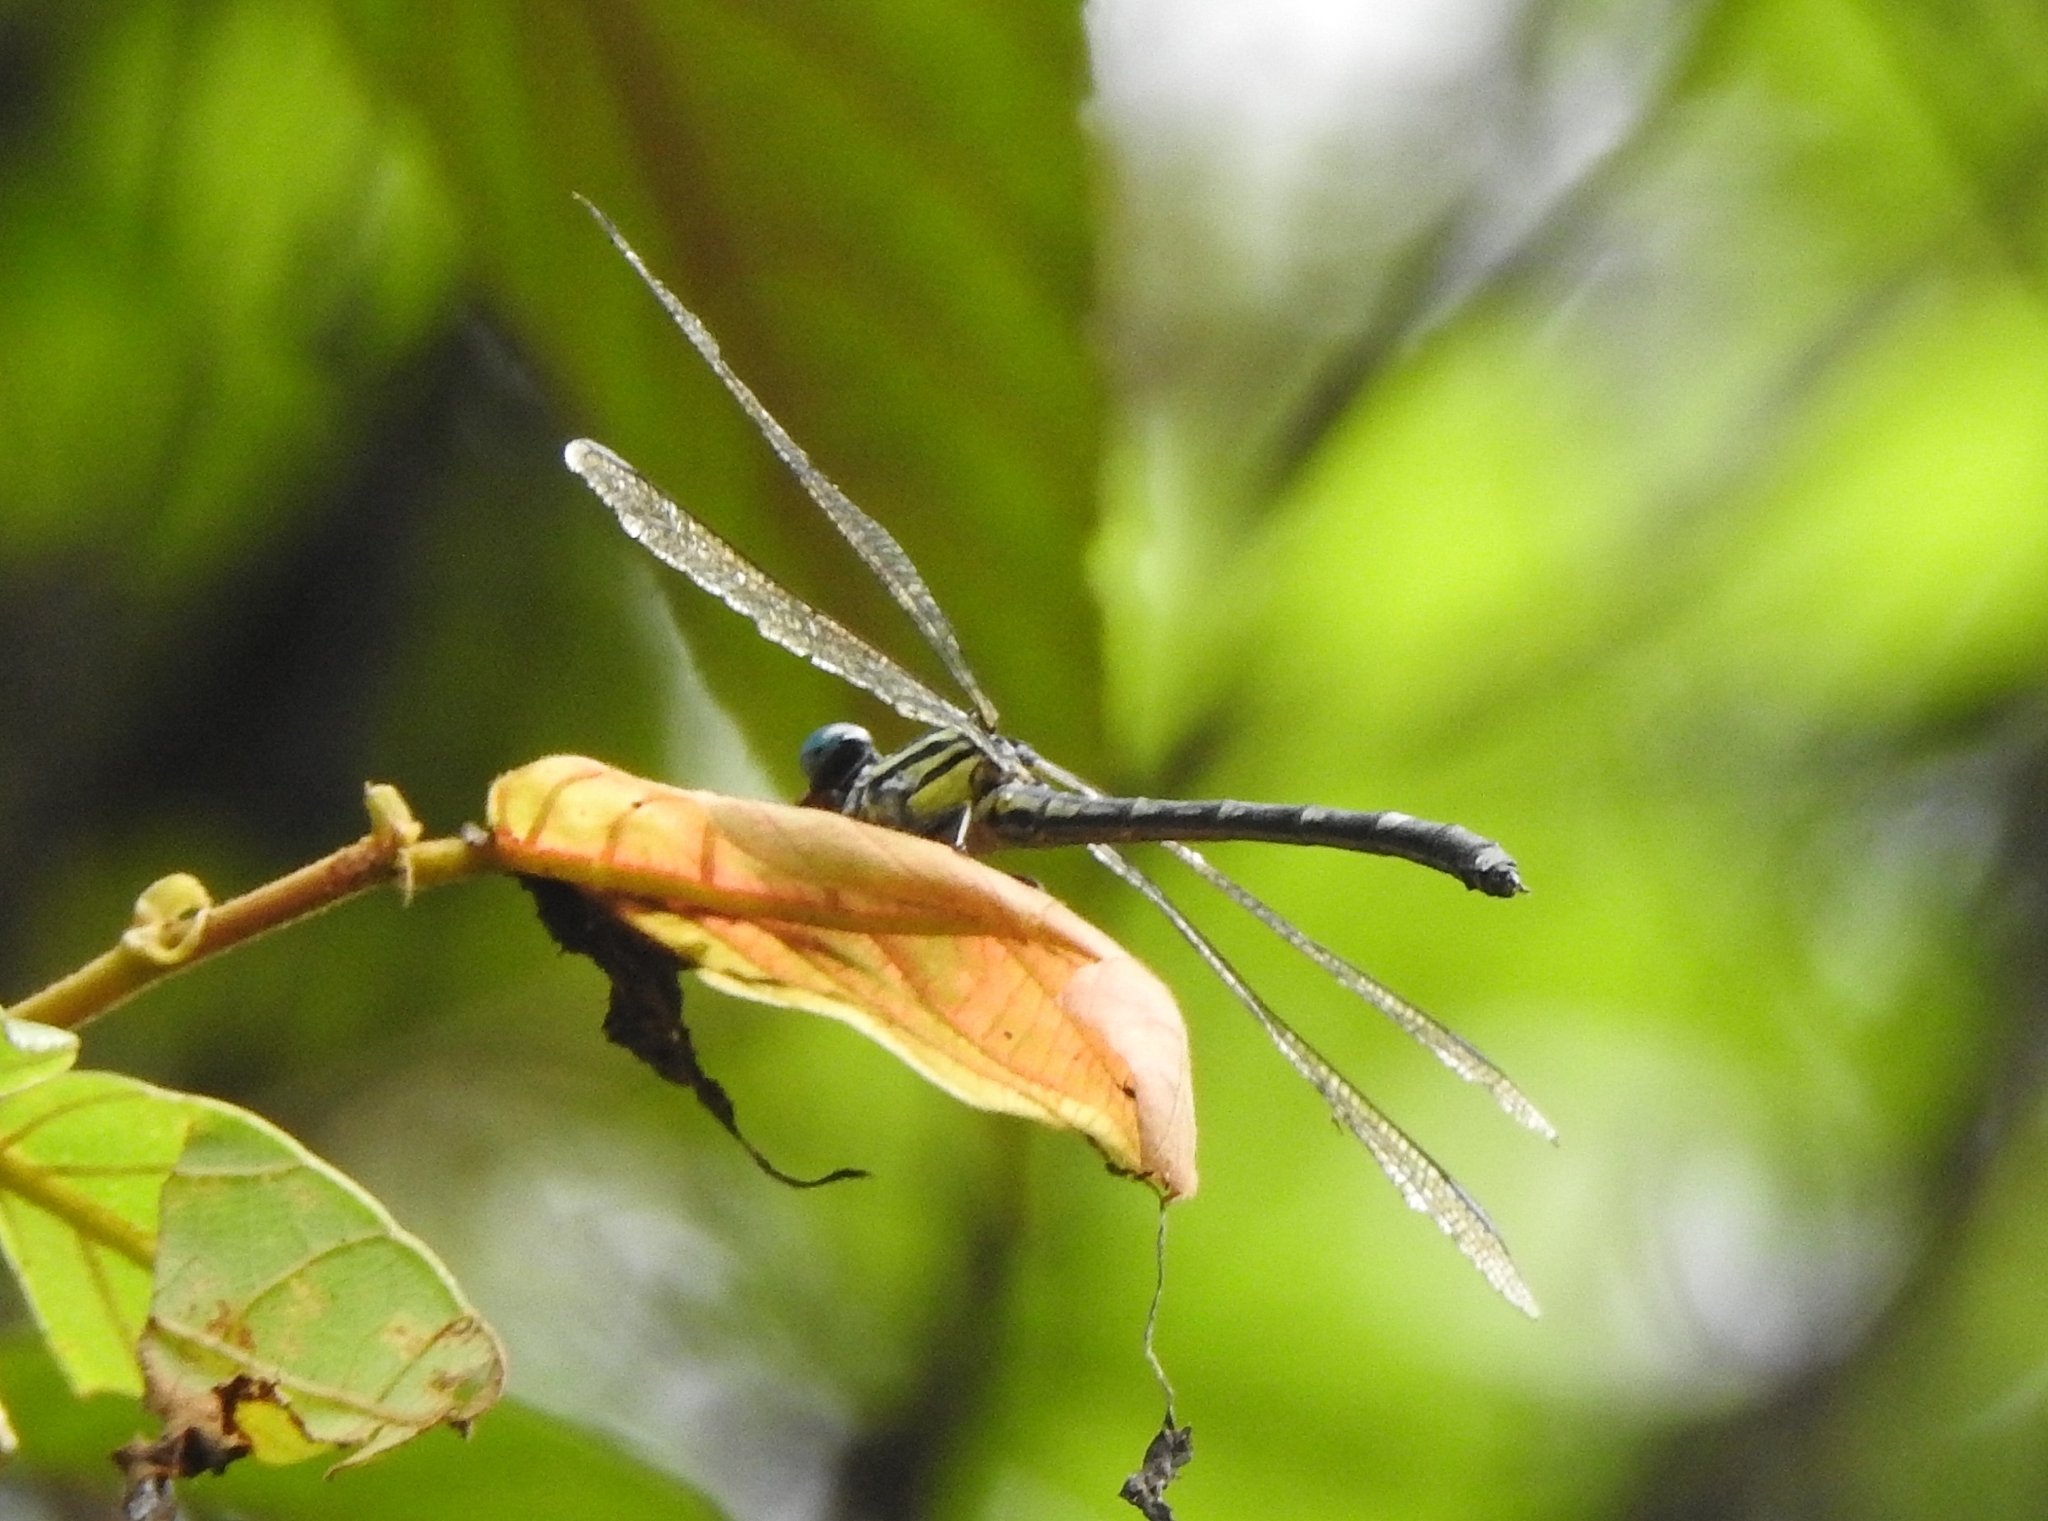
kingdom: Animalia
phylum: Arthropoda
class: Insecta
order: Odonata
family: Gomphidae
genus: Burmagomphus
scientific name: Burmagomphus laidlawi
